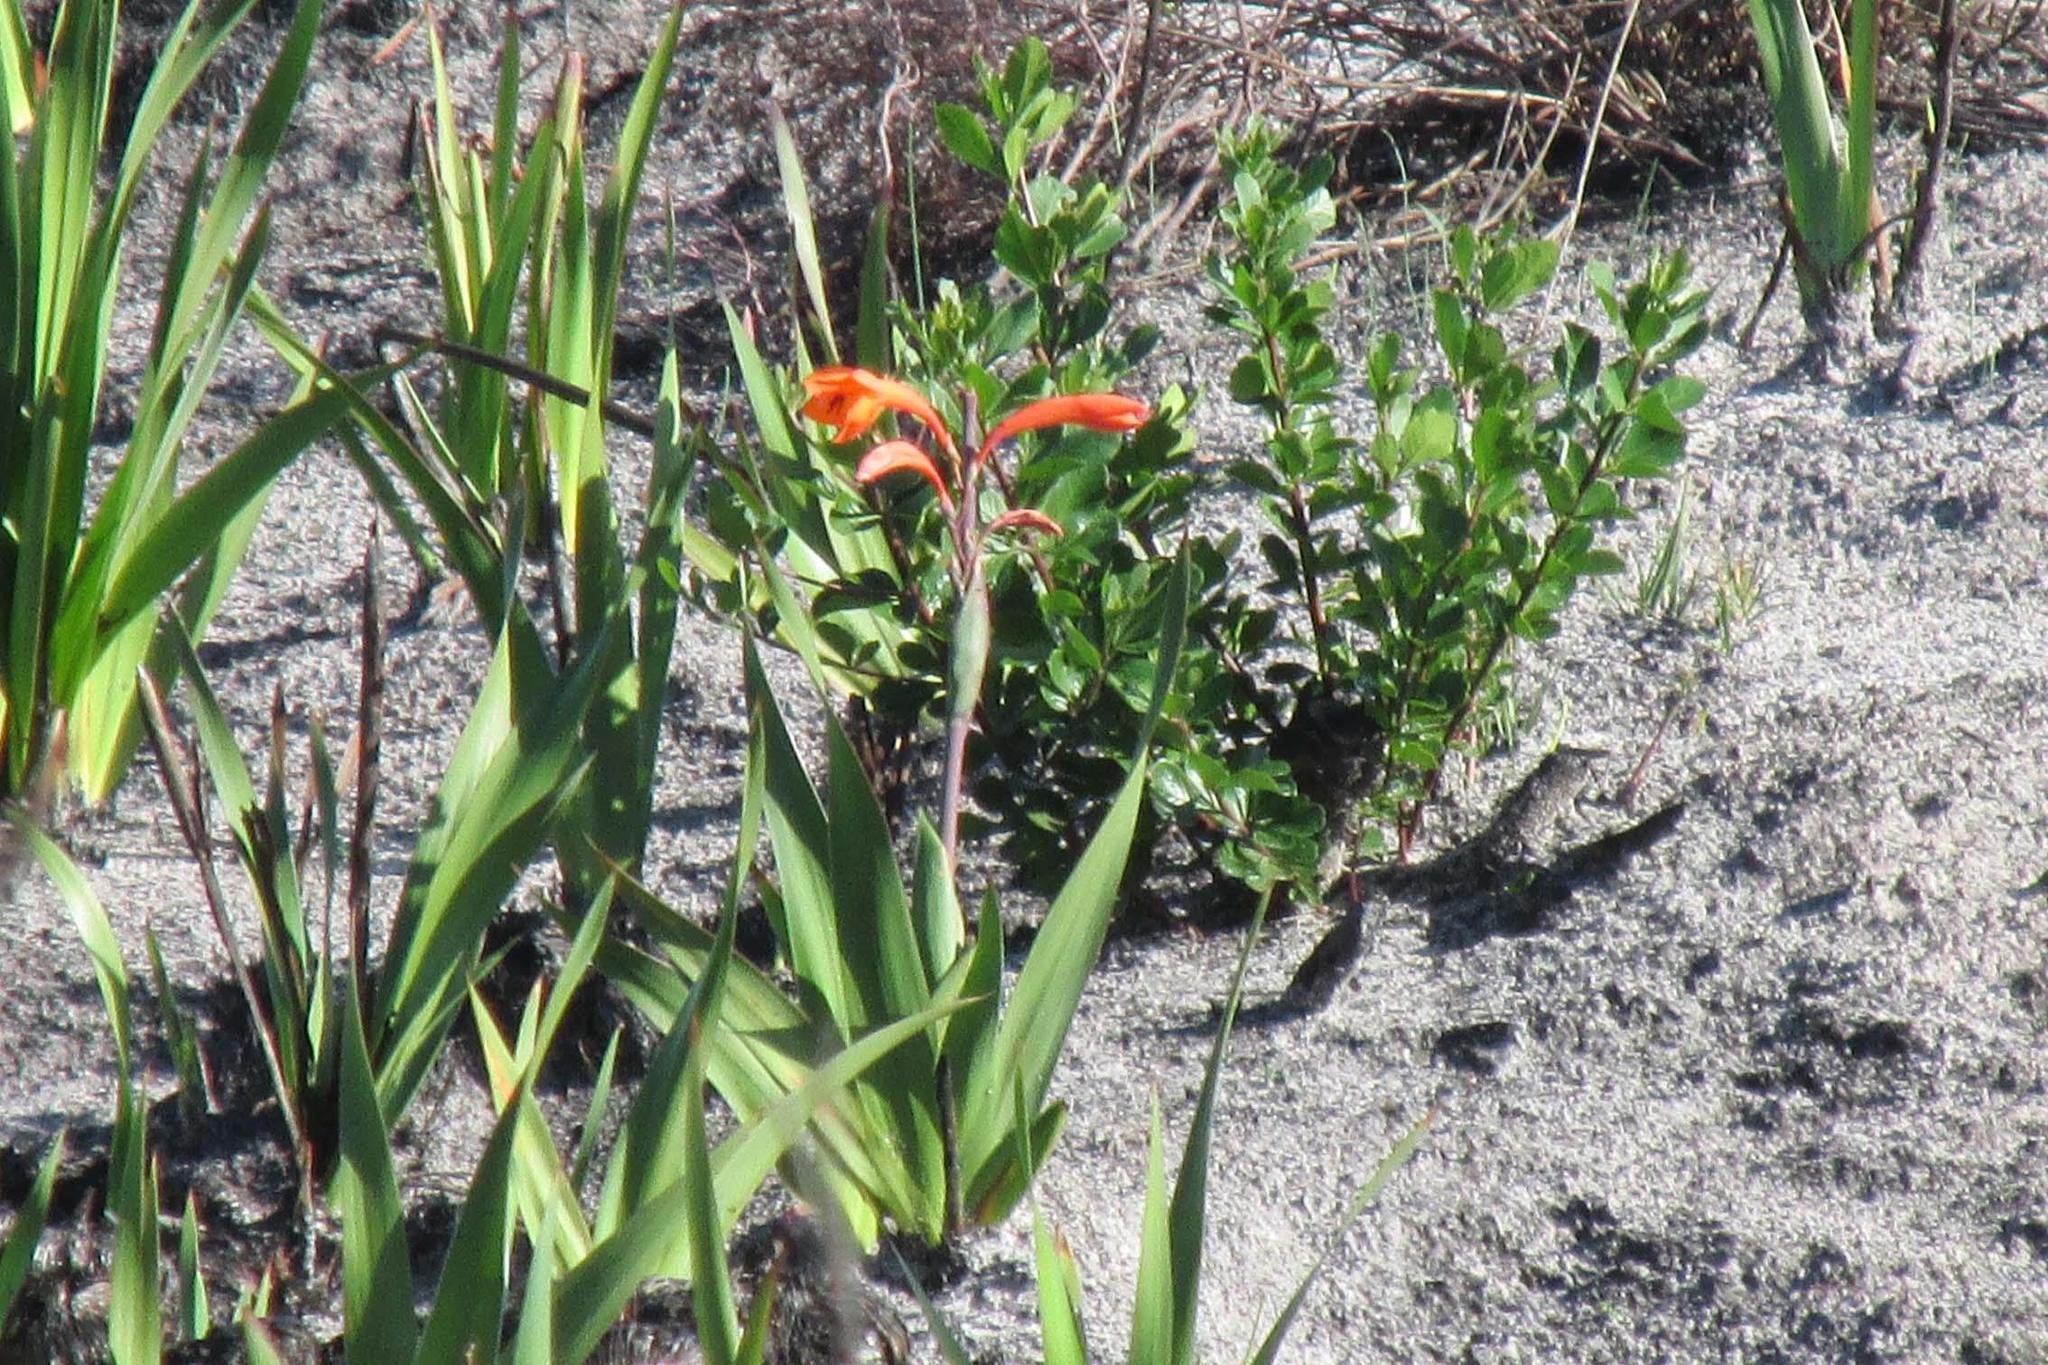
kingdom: Plantae
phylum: Tracheophyta
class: Liliopsida
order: Asparagales
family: Iridaceae
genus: Watsonia
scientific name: Watsonia tabularis
